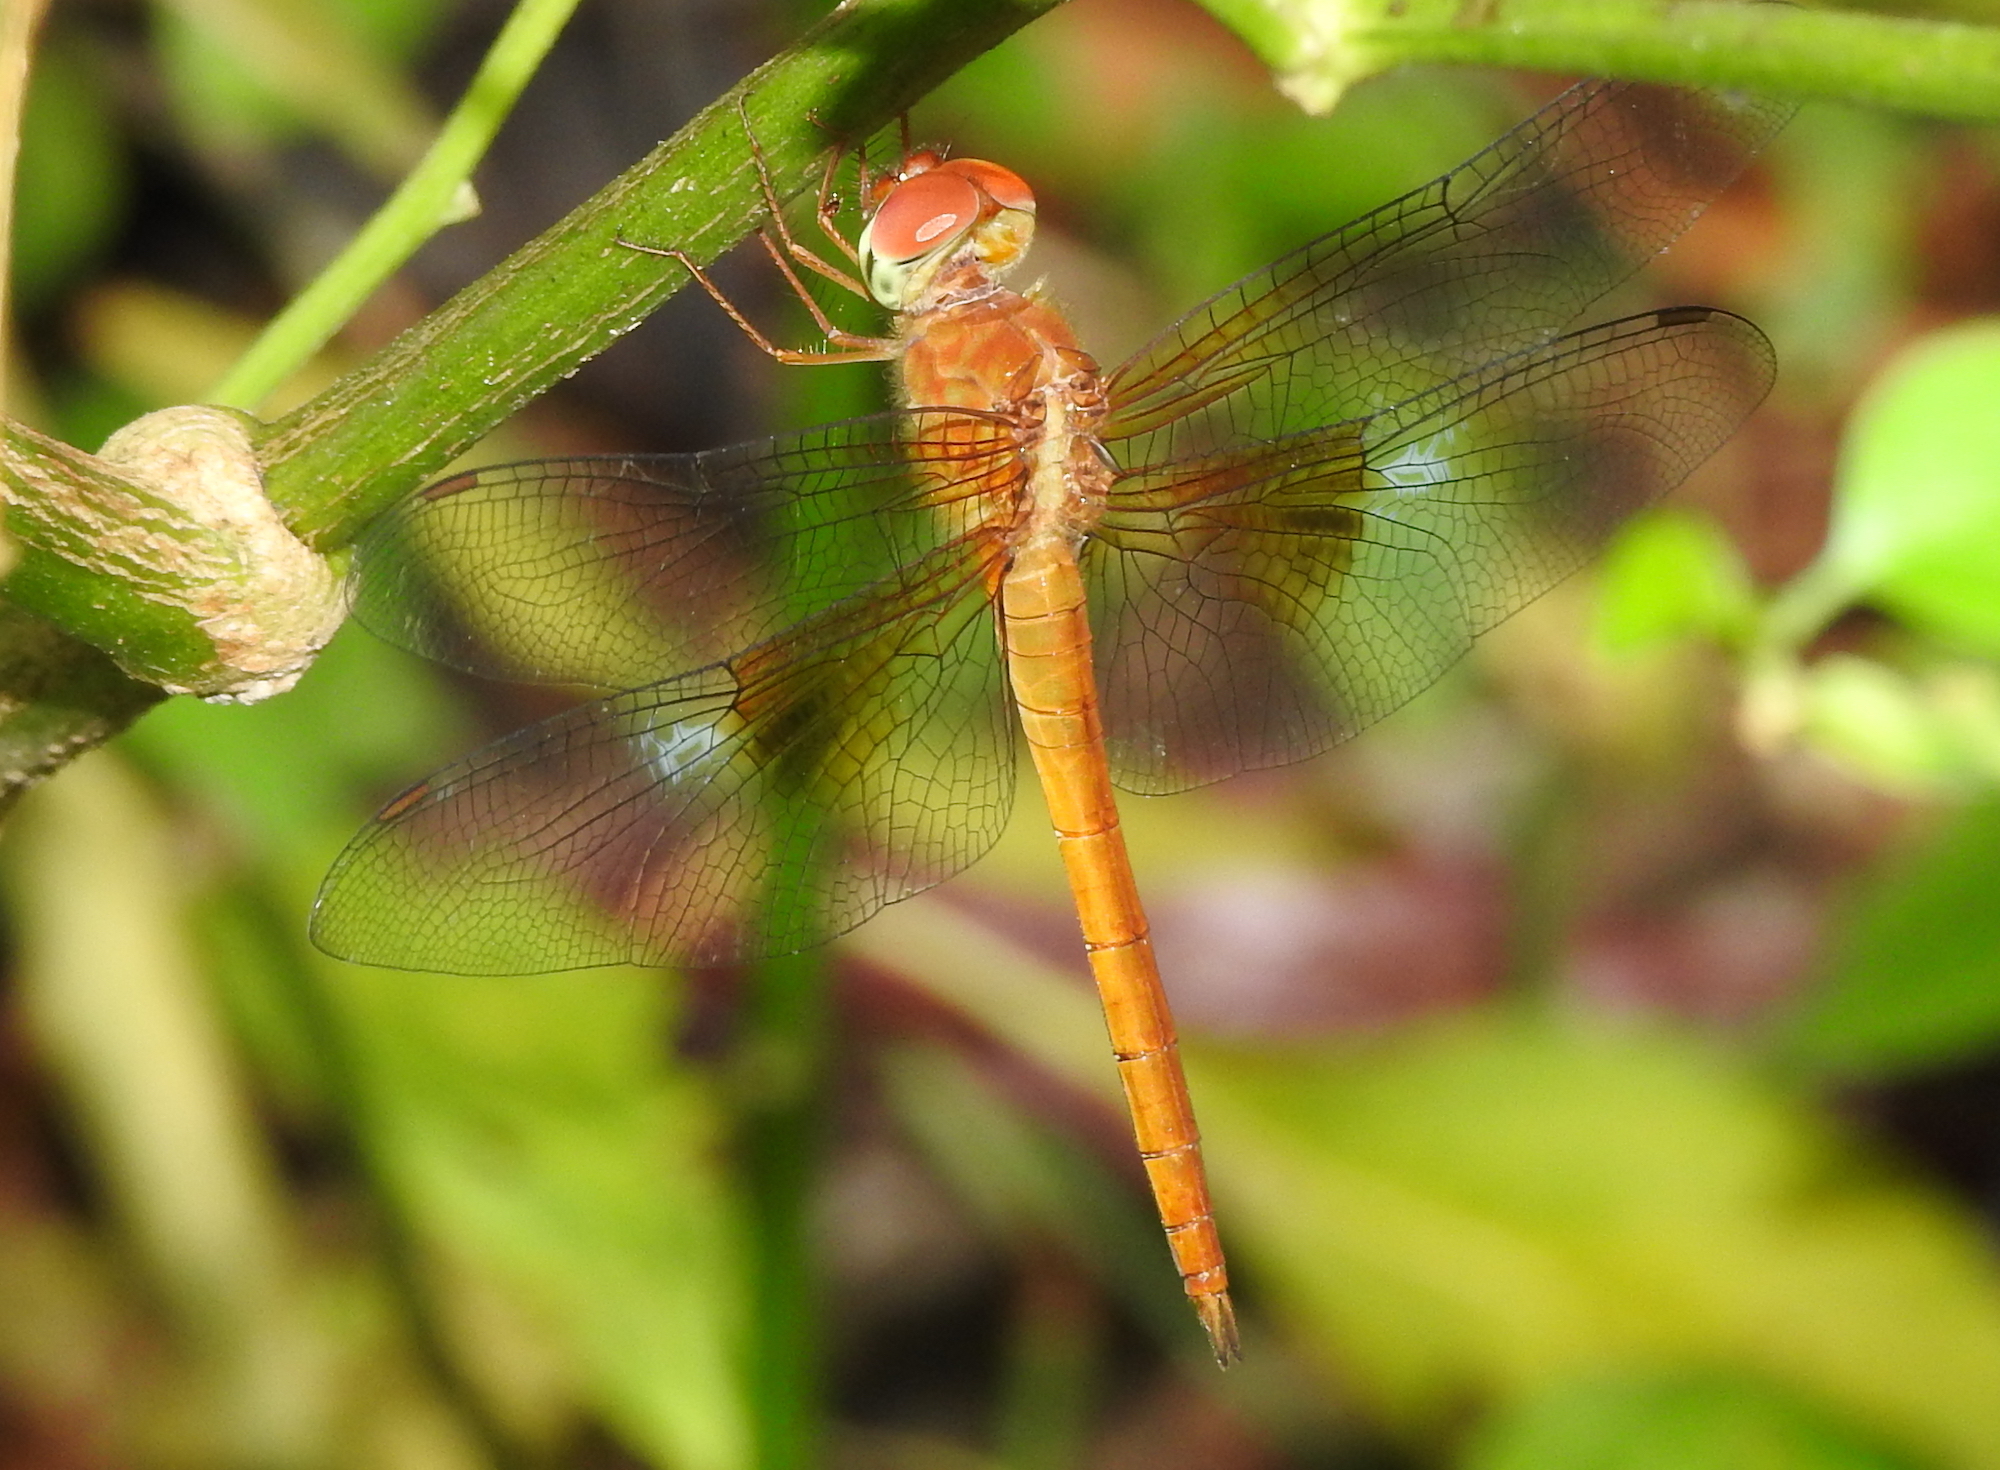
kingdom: Animalia
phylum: Arthropoda
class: Insecta
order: Odonata
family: Libellulidae
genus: Tholymis
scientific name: Tholymis tillarga
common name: Coral-tailed cloud wing
